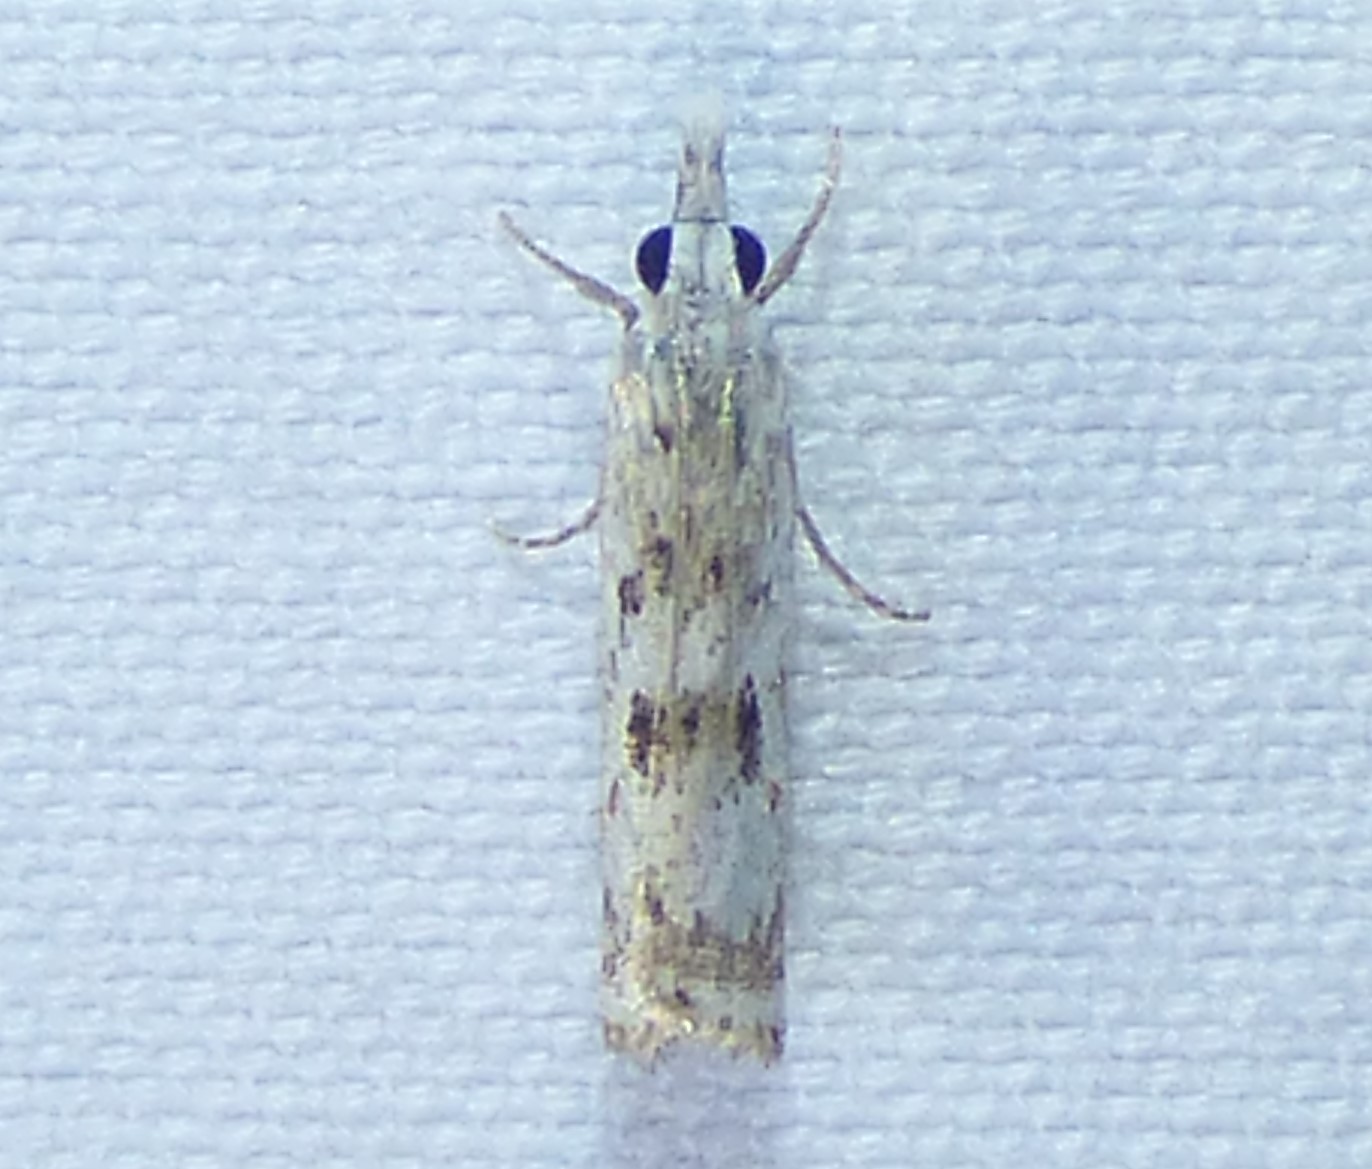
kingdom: Animalia
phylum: Arthropoda
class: Insecta
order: Lepidoptera
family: Crambidae
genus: Microcrambus
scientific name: Microcrambus immunellus
